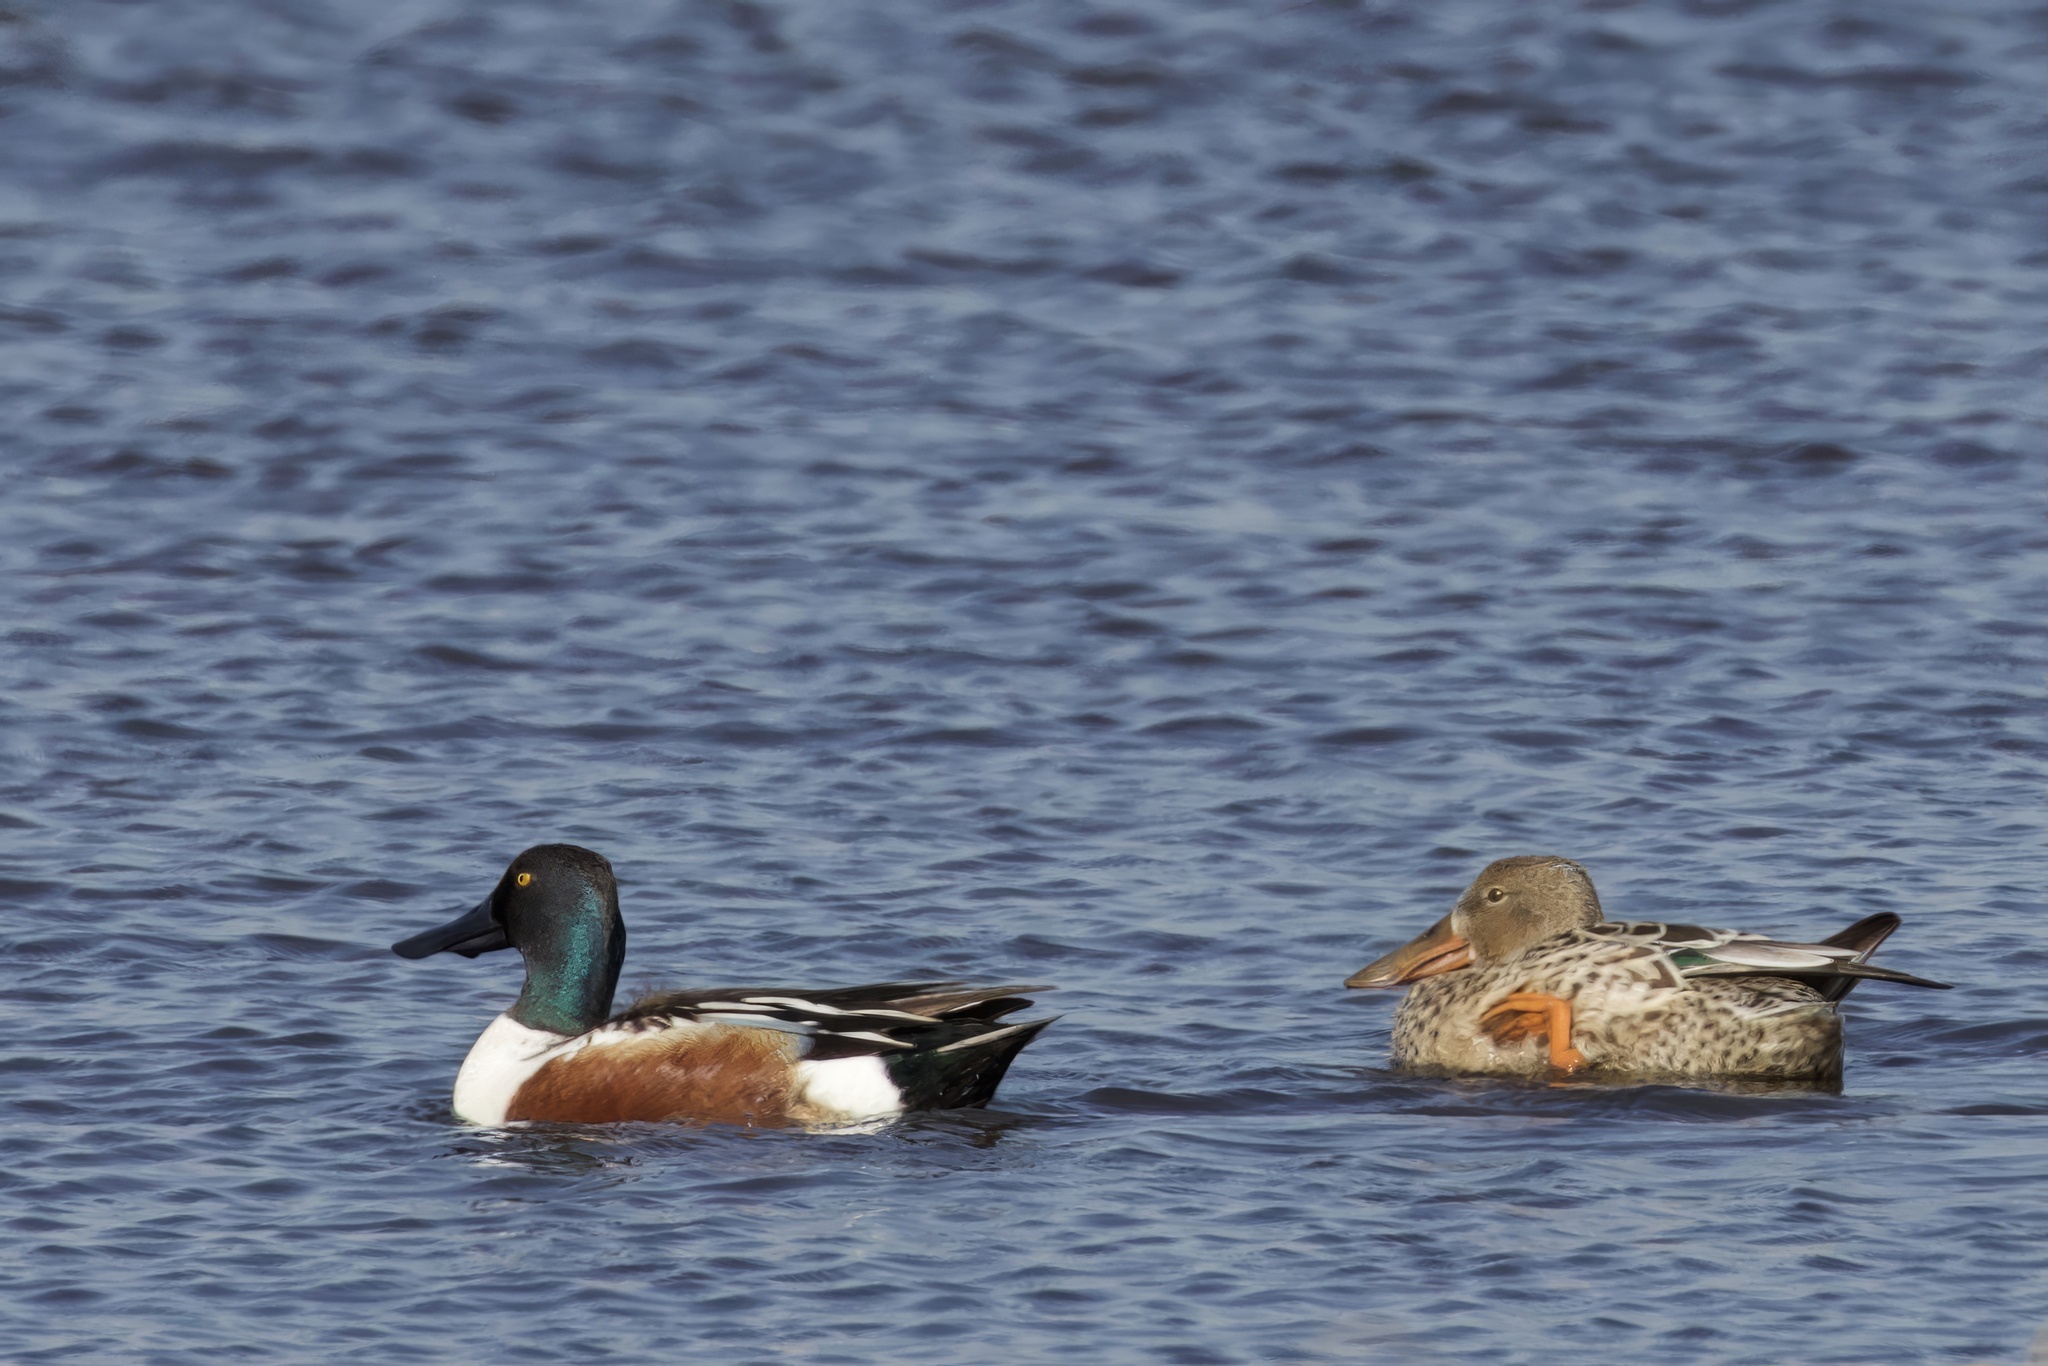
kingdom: Animalia
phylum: Chordata
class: Aves
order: Anseriformes
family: Anatidae
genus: Spatula
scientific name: Spatula clypeata
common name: Northern shoveler
